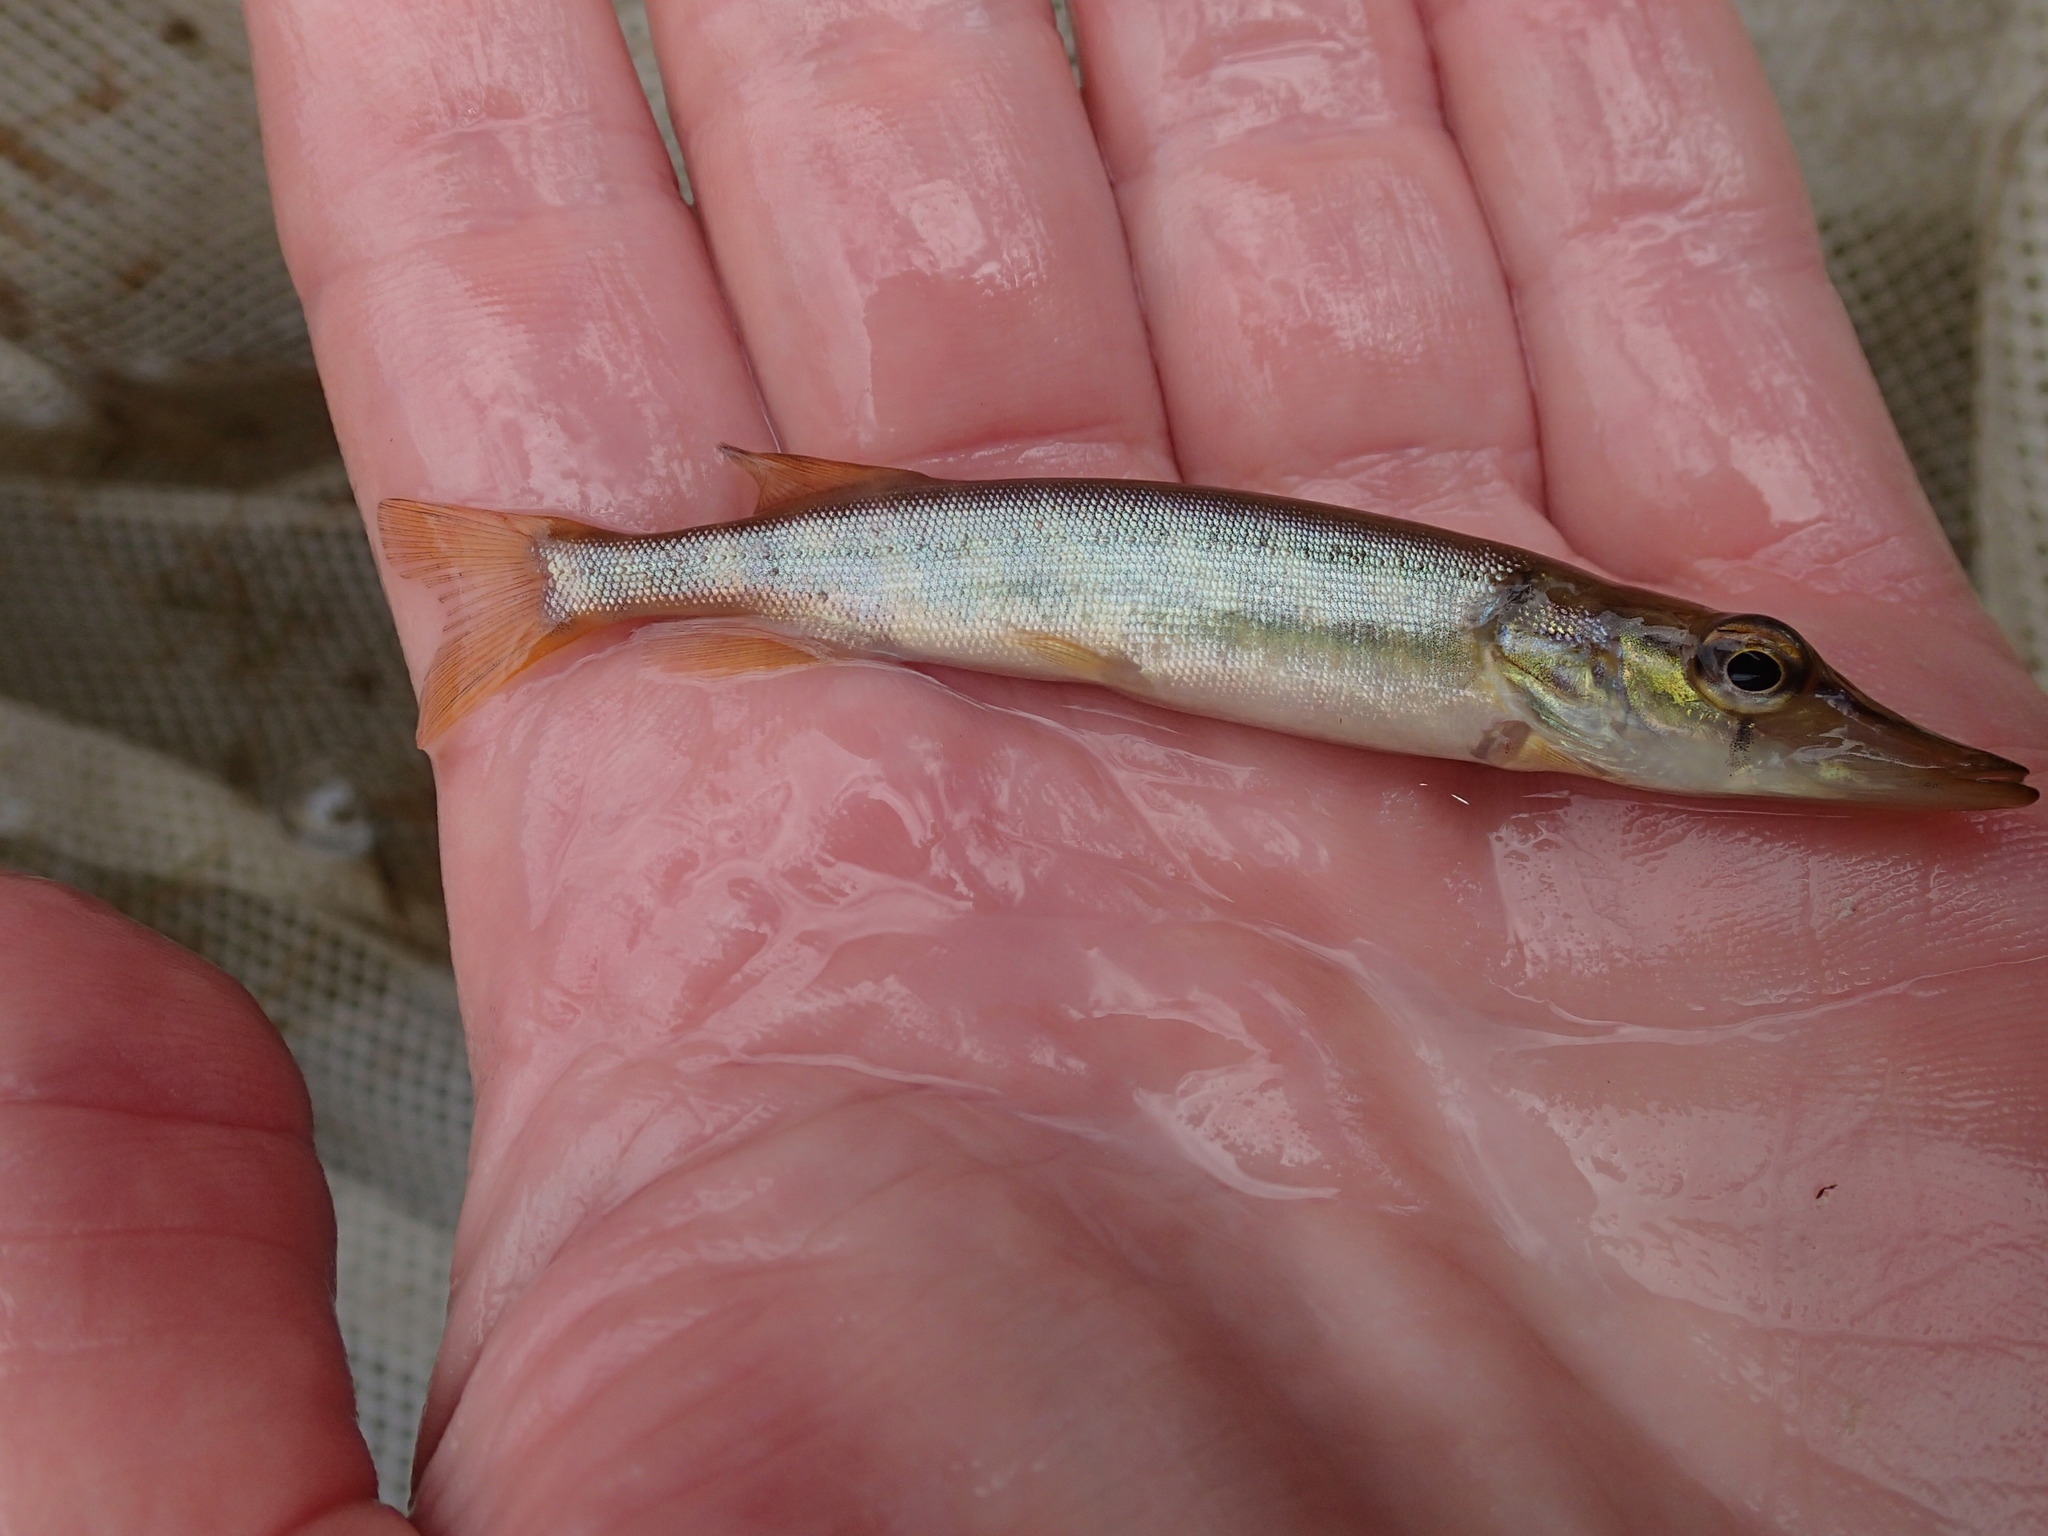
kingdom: Animalia
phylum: Chordata
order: Esociformes
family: Esocidae
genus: Esox
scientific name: Esox lucius
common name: Northern pike
